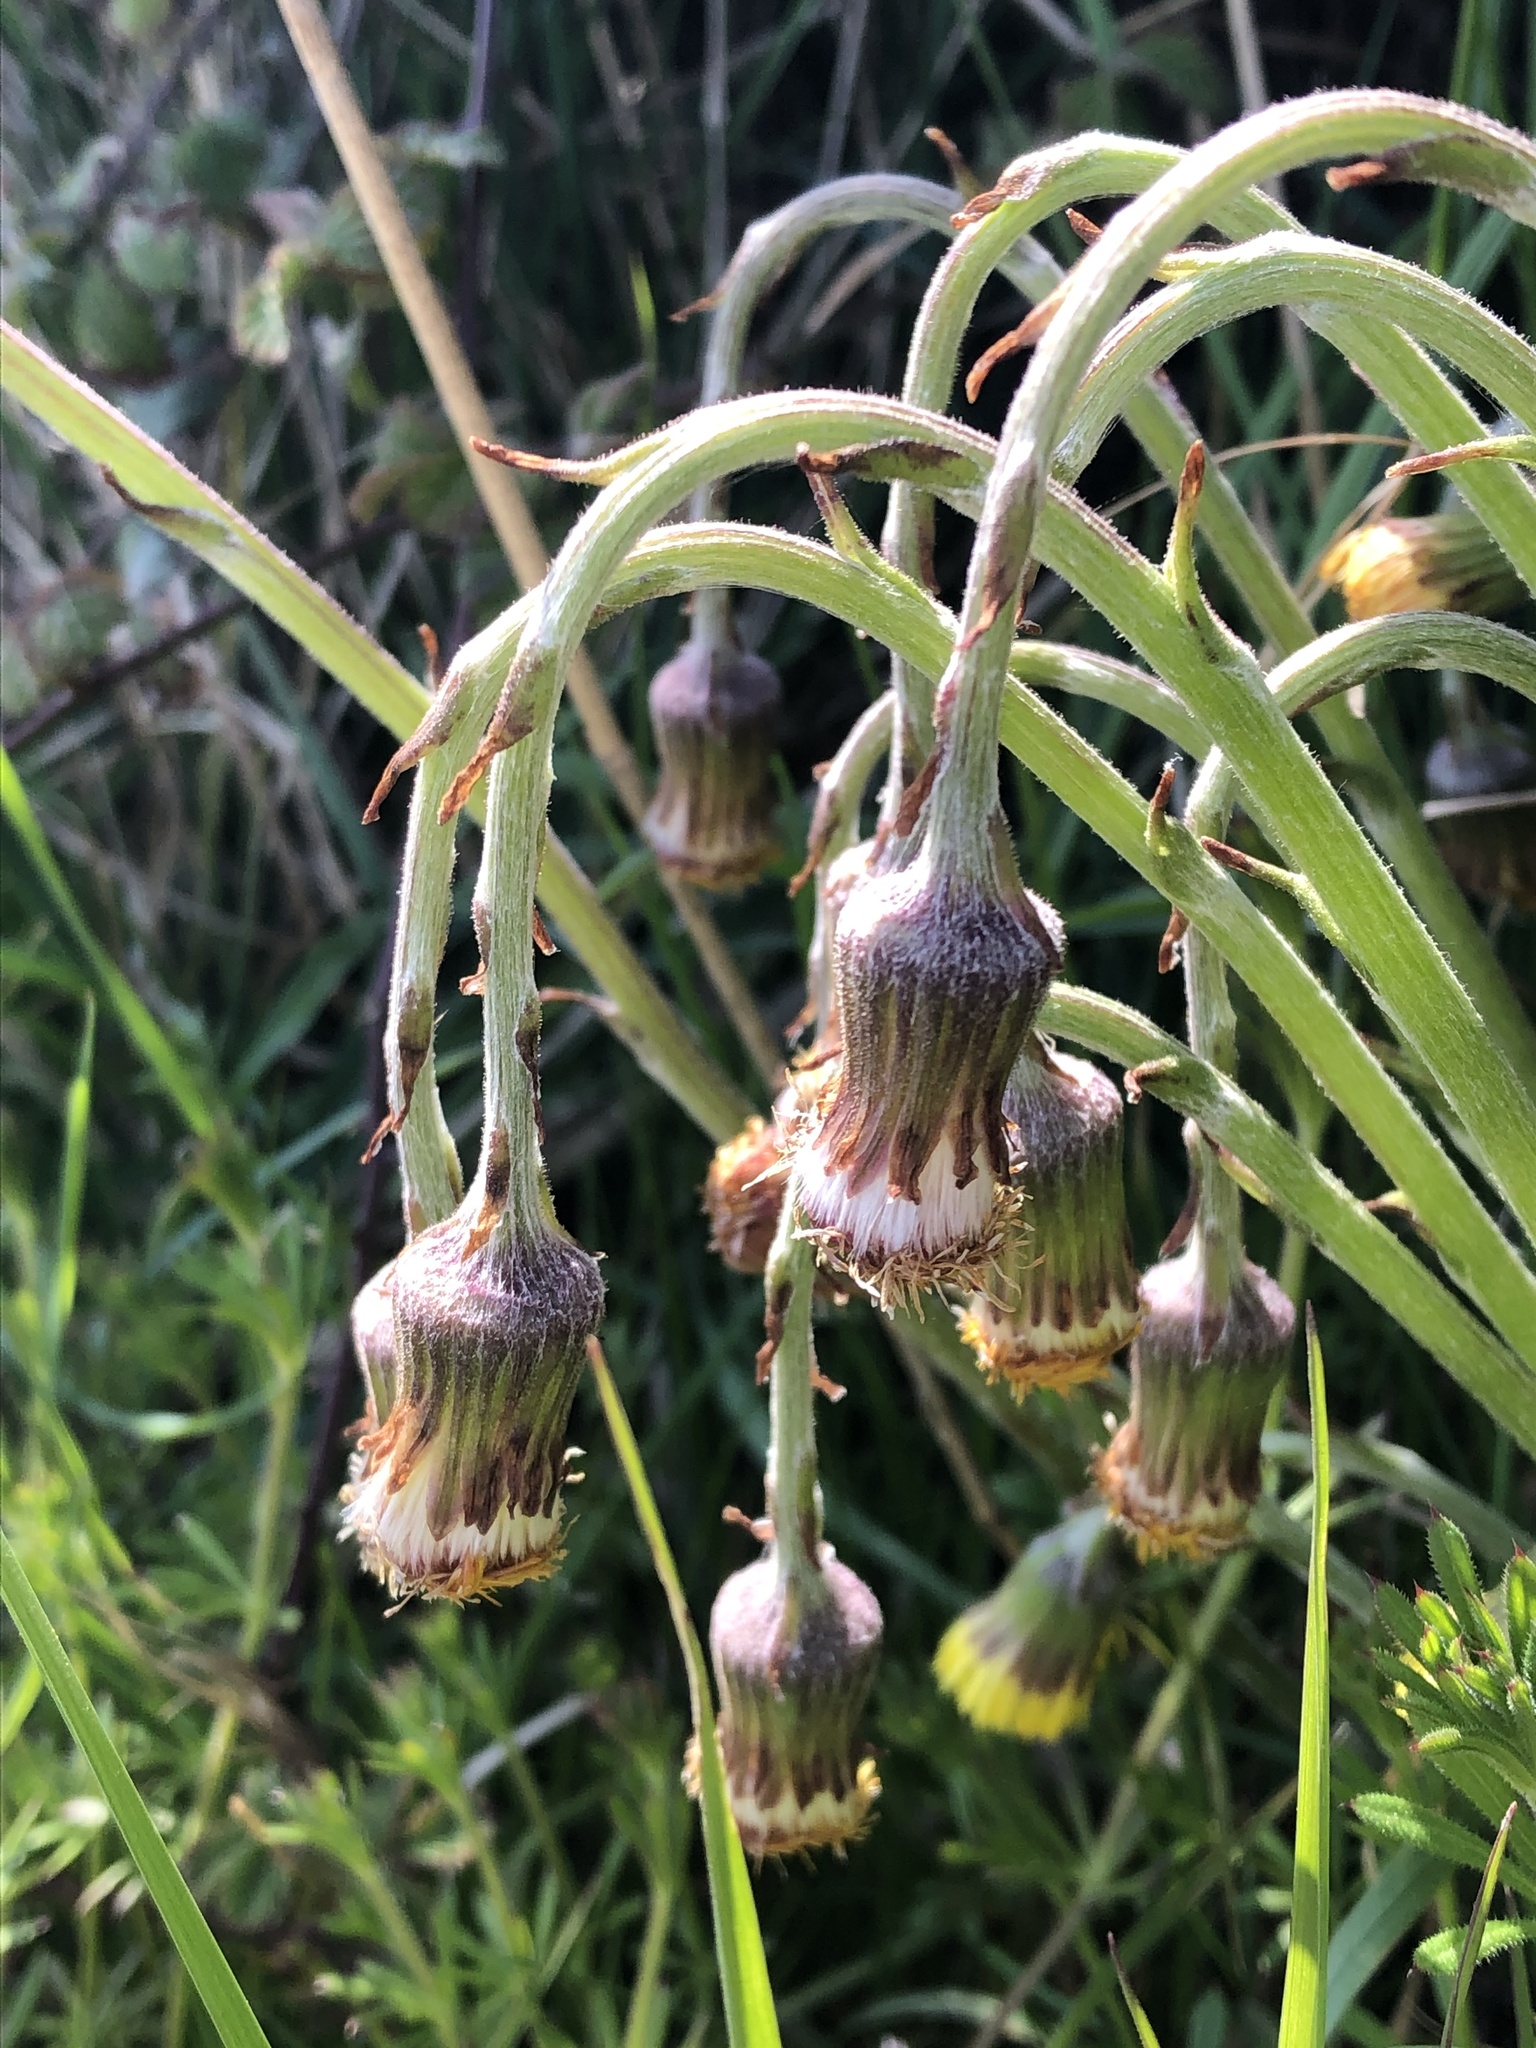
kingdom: Plantae
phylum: Tracheophyta
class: Magnoliopsida
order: Asterales
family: Asteraceae
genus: Tussilago
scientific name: Tussilago farfara
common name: Coltsfoot
